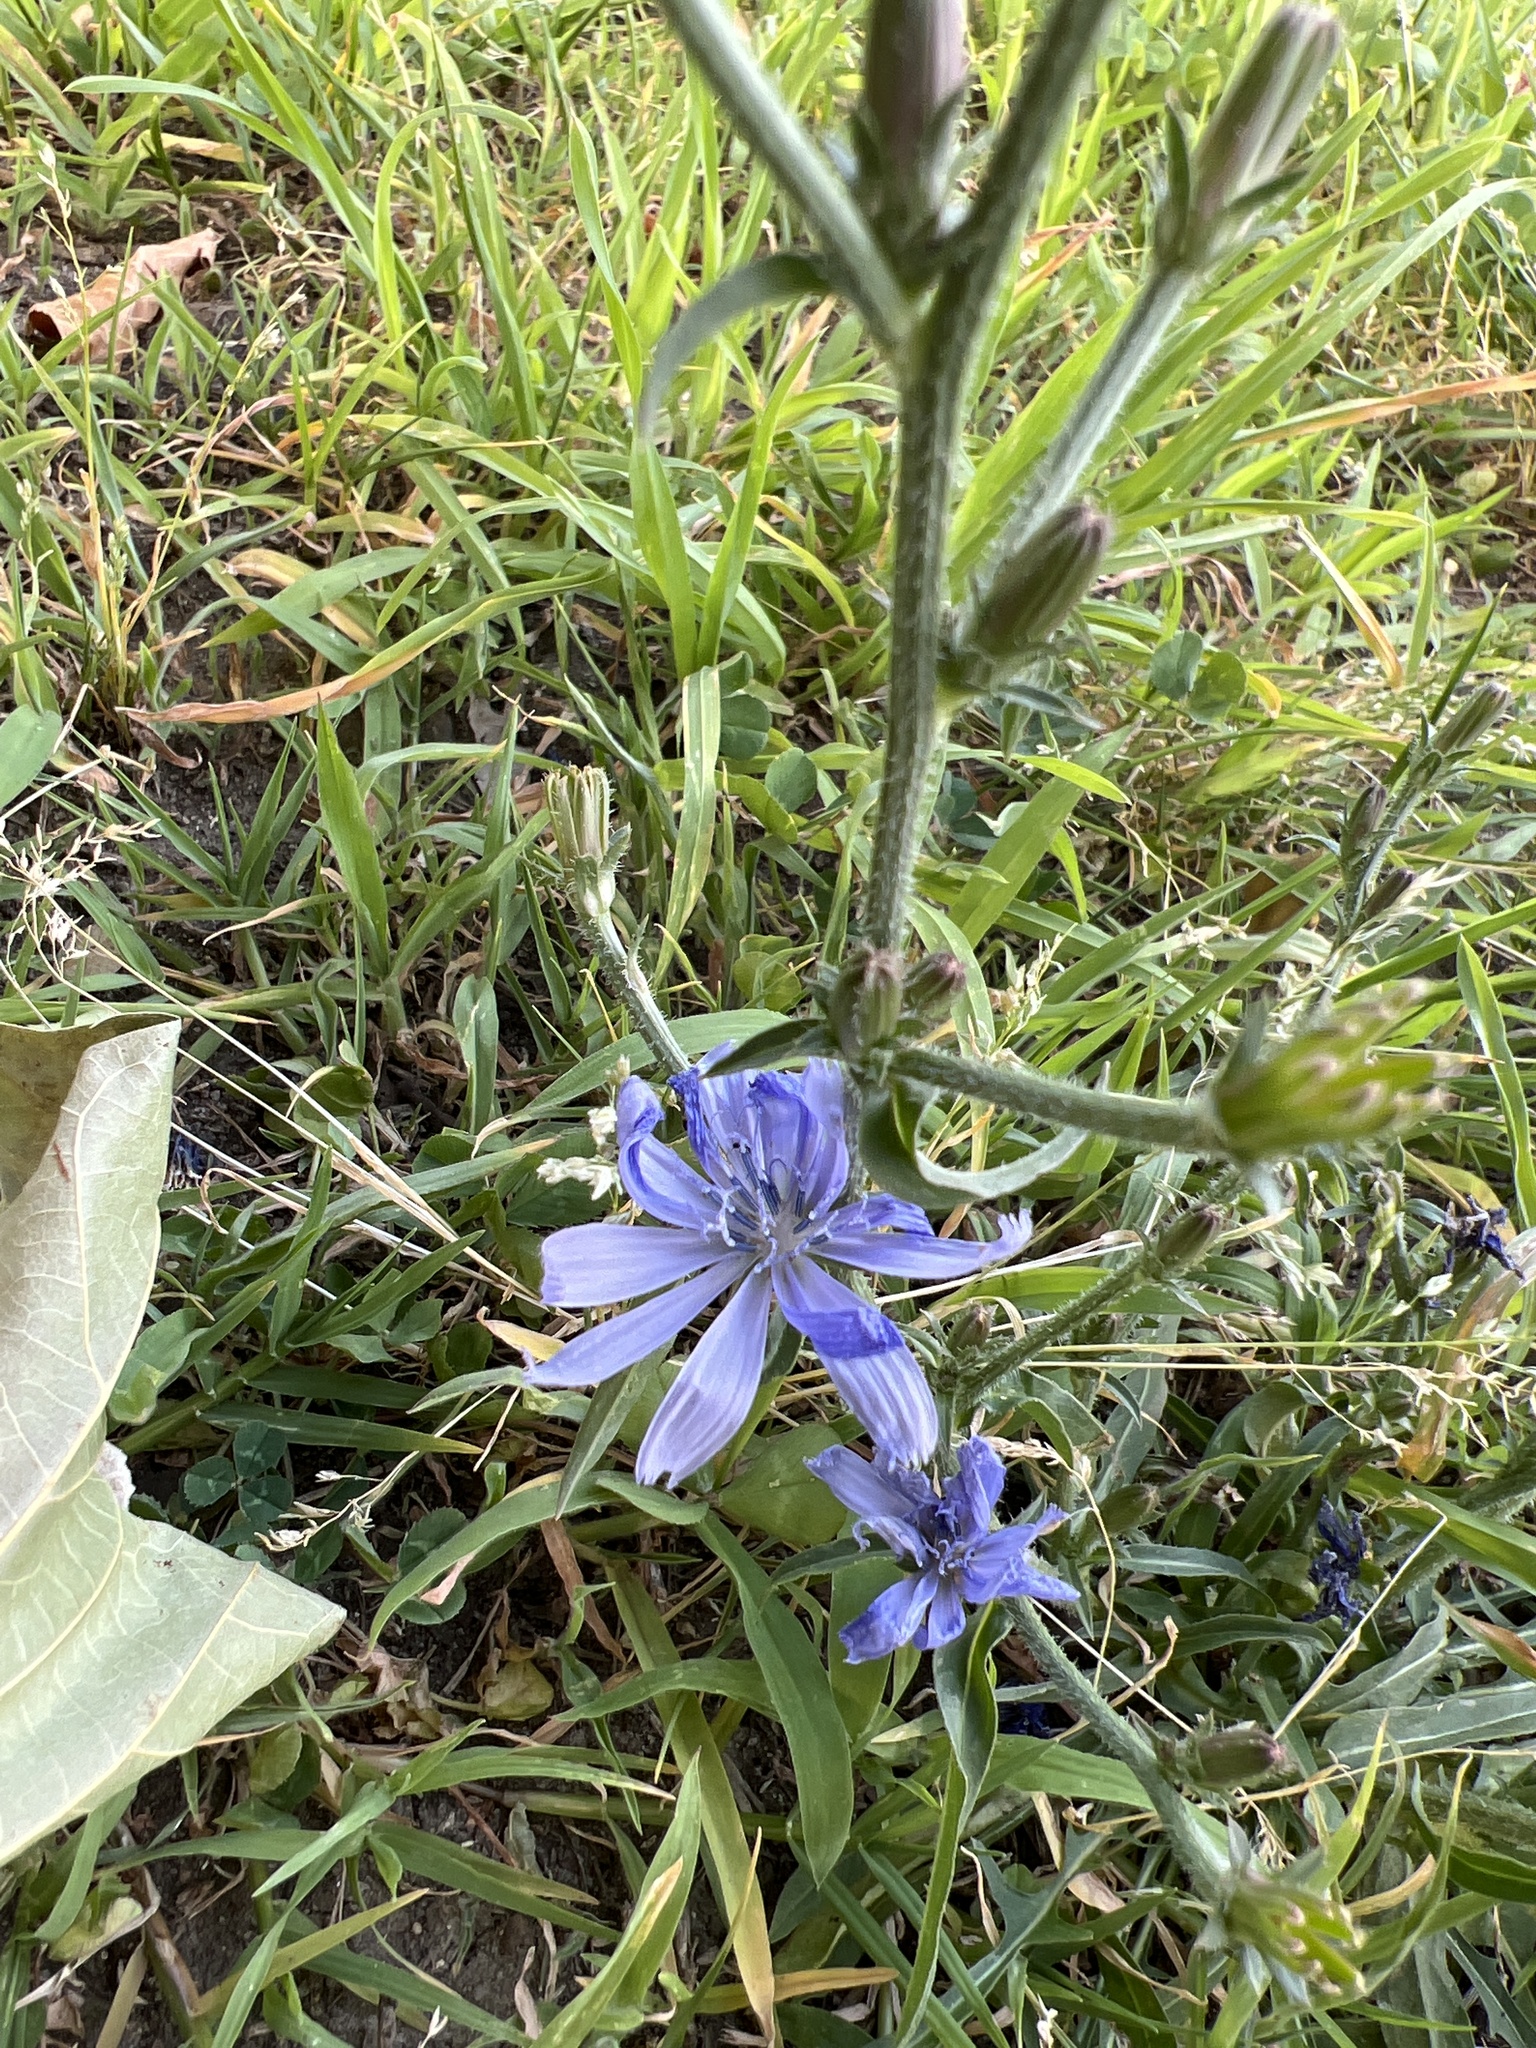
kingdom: Plantae
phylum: Tracheophyta
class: Magnoliopsida
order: Asterales
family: Asteraceae
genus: Cichorium
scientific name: Cichorium intybus
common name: Chicory
